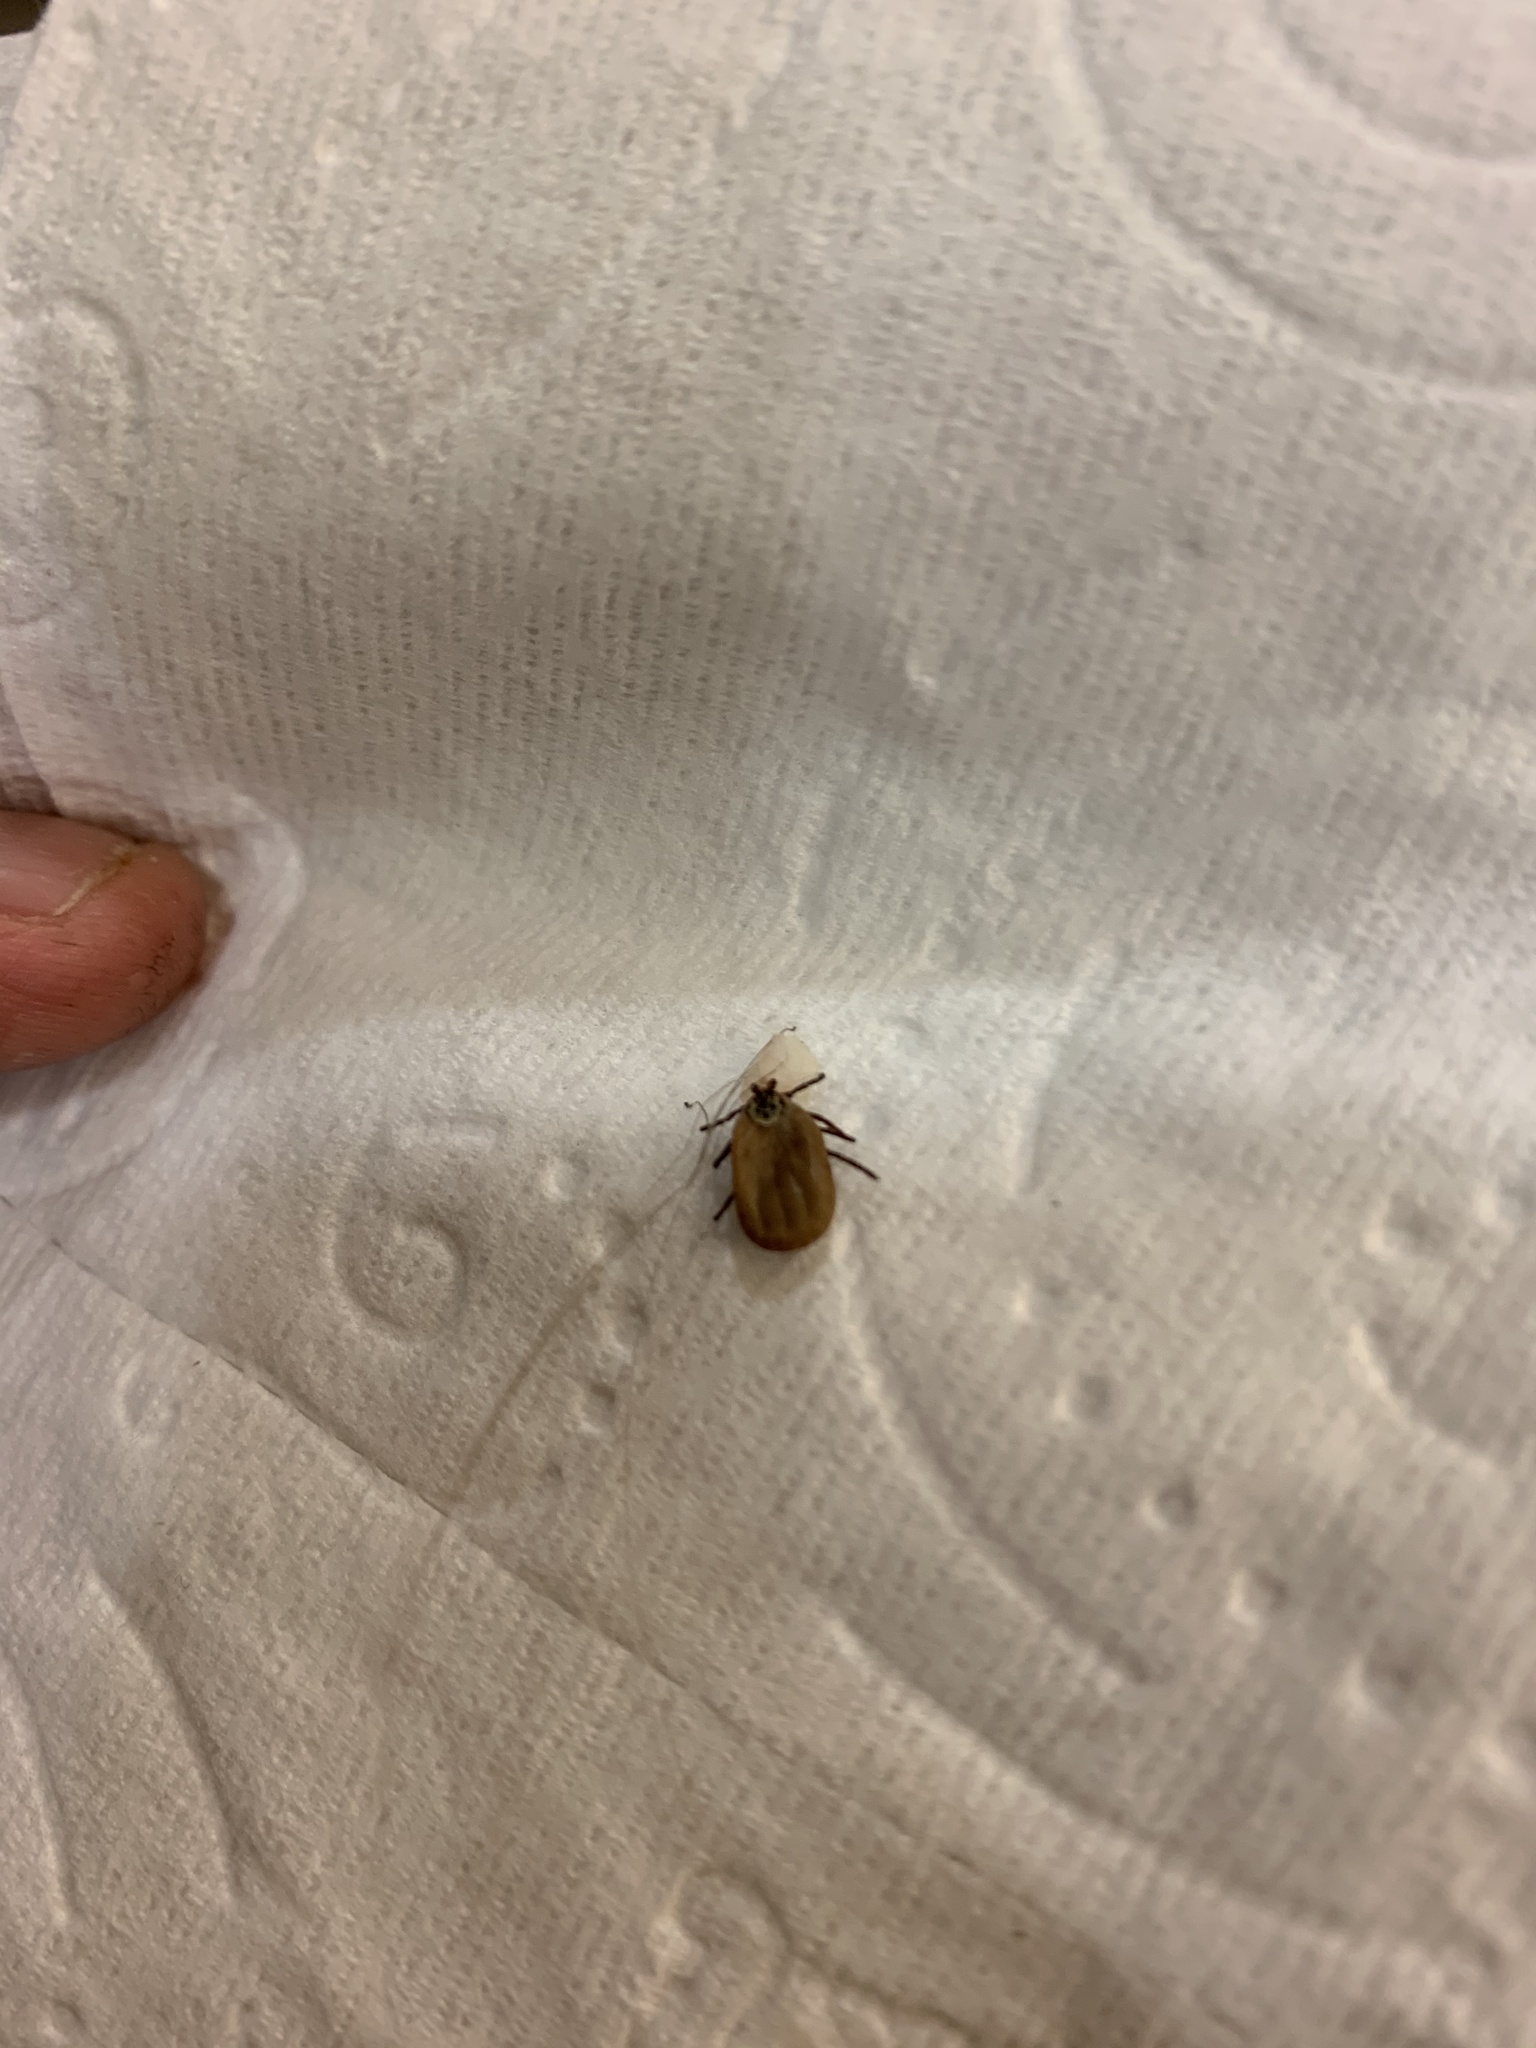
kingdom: Animalia
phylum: Arthropoda
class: Arachnida
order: Ixodida
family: Ixodidae
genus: Dermacentor
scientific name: Dermacentor occidentalis
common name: Net tick
